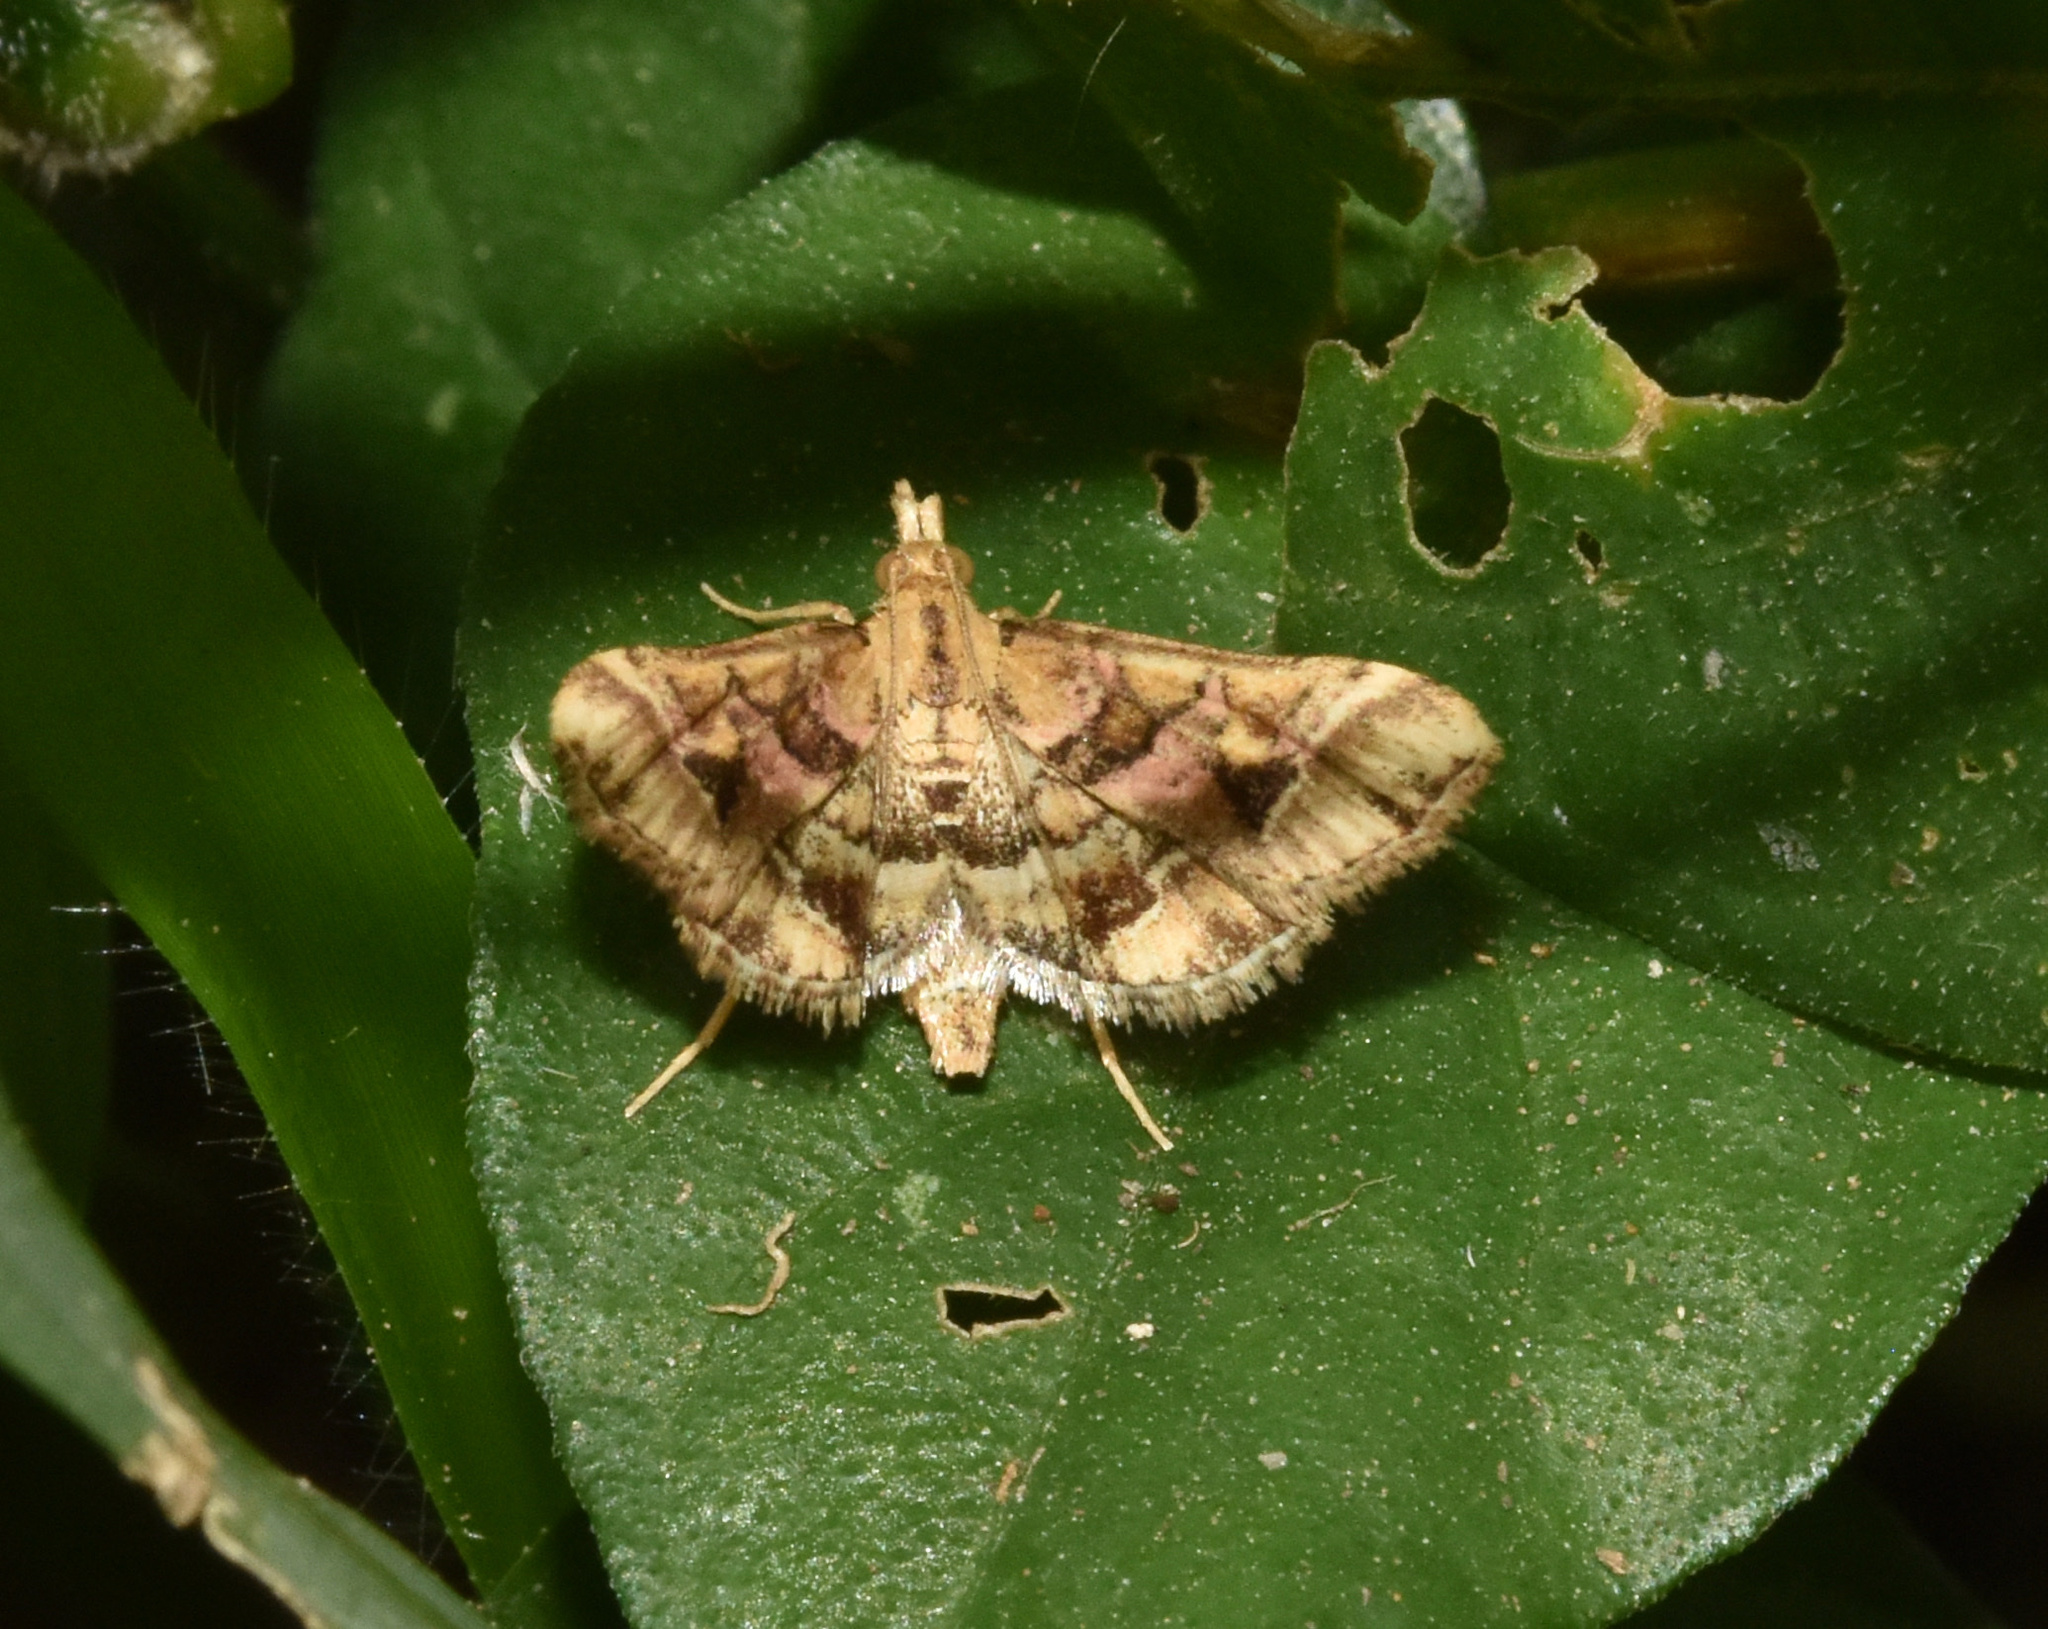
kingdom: Animalia
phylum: Arthropoda
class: Insecta
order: Lepidoptera
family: Crambidae
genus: Diasemia
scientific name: Diasemia lunalis
